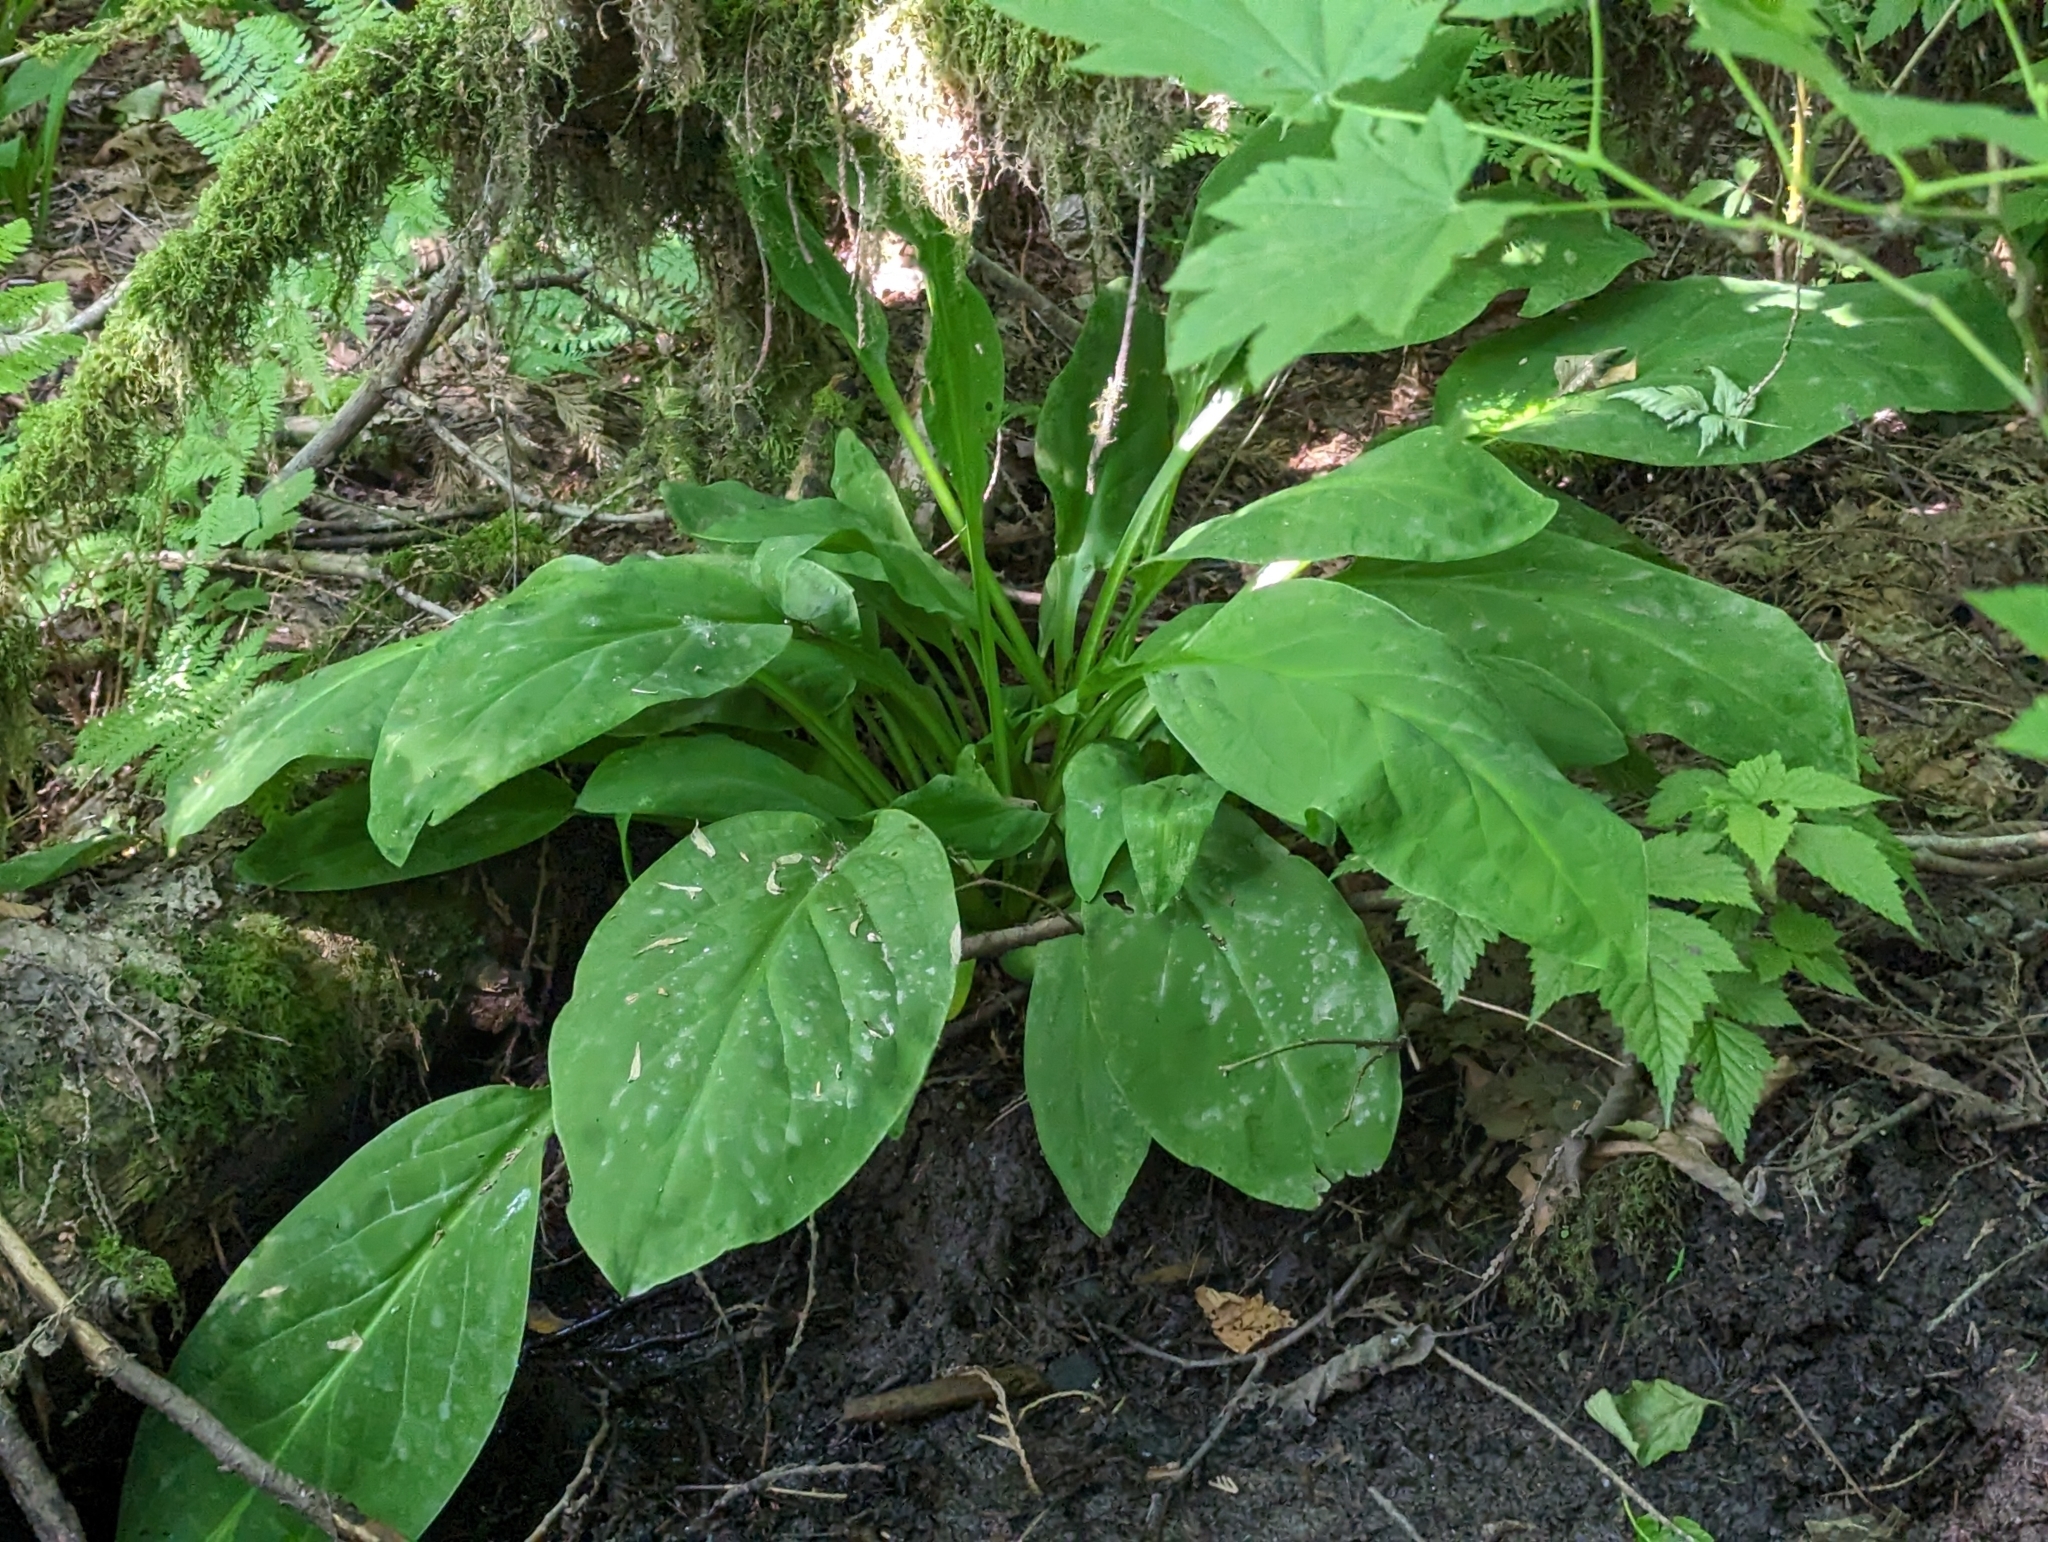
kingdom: Plantae
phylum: Tracheophyta
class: Liliopsida
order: Alismatales
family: Araceae
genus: Lysichiton
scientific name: Lysichiton americanus
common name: American skunk cabbage
